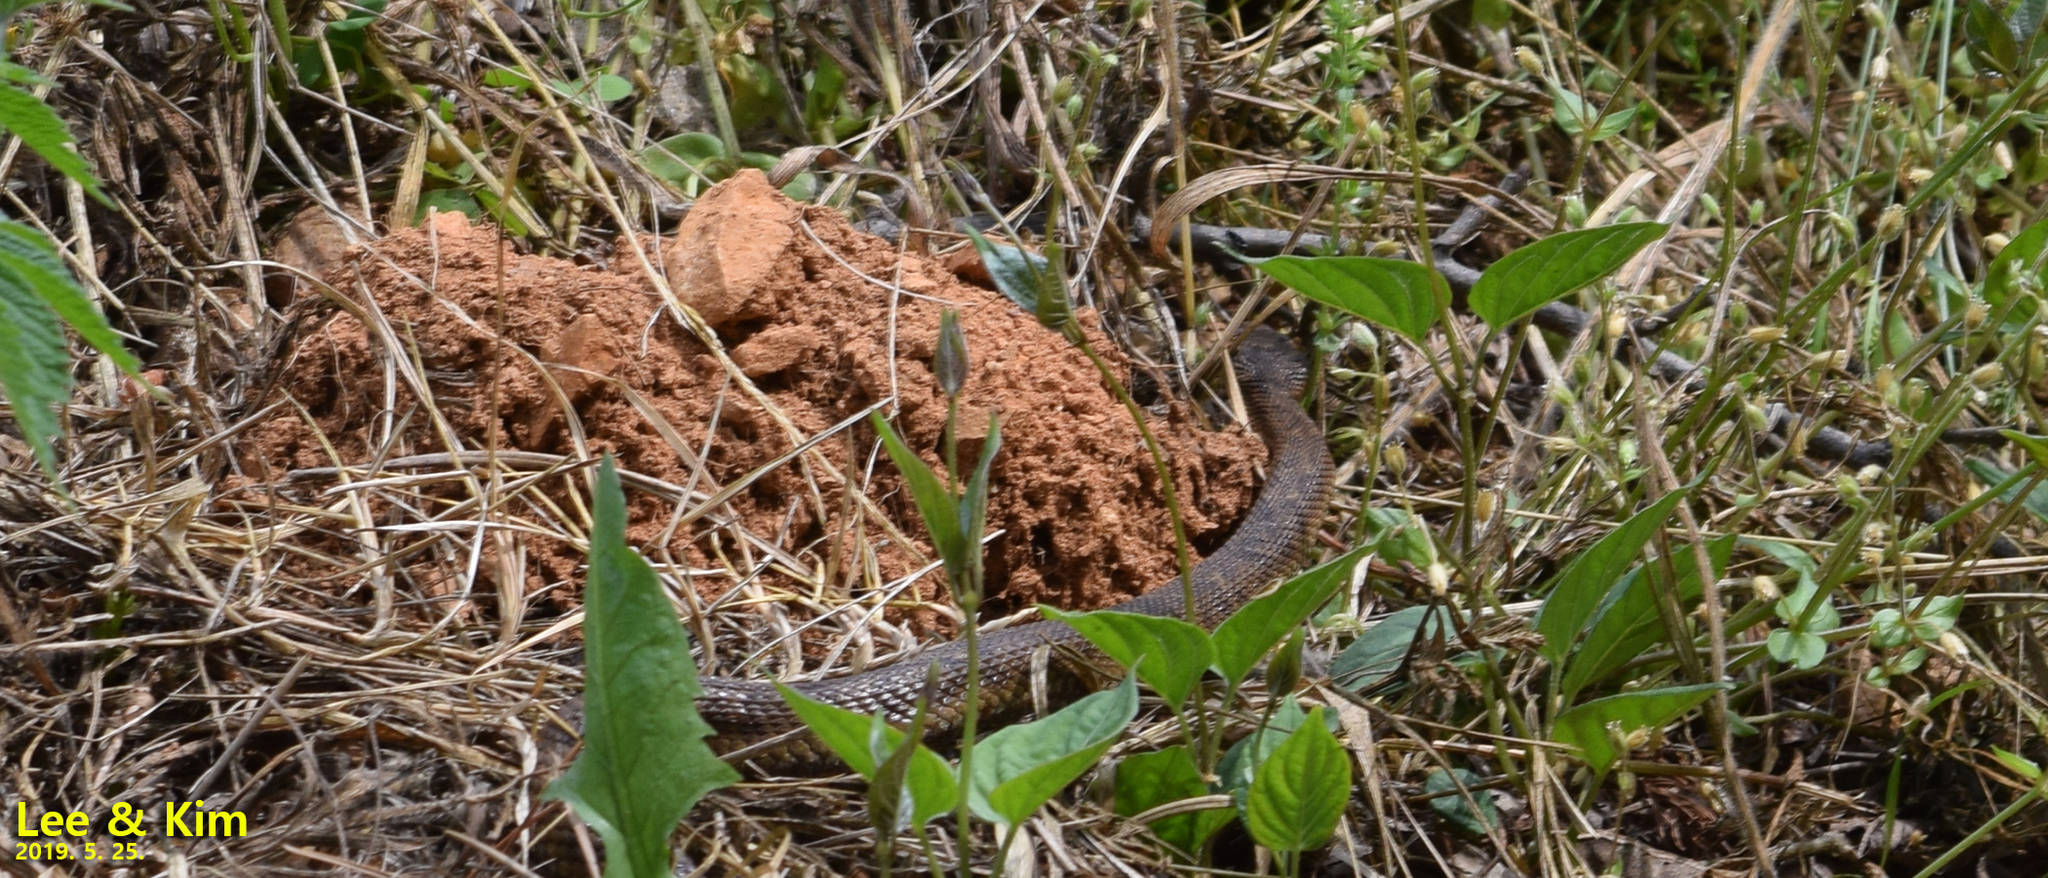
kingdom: Animalia
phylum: Chordata
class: Squamata
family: Viperidae
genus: Gloydius
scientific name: Gloydius ussuriensis
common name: Ussuri mamushi
